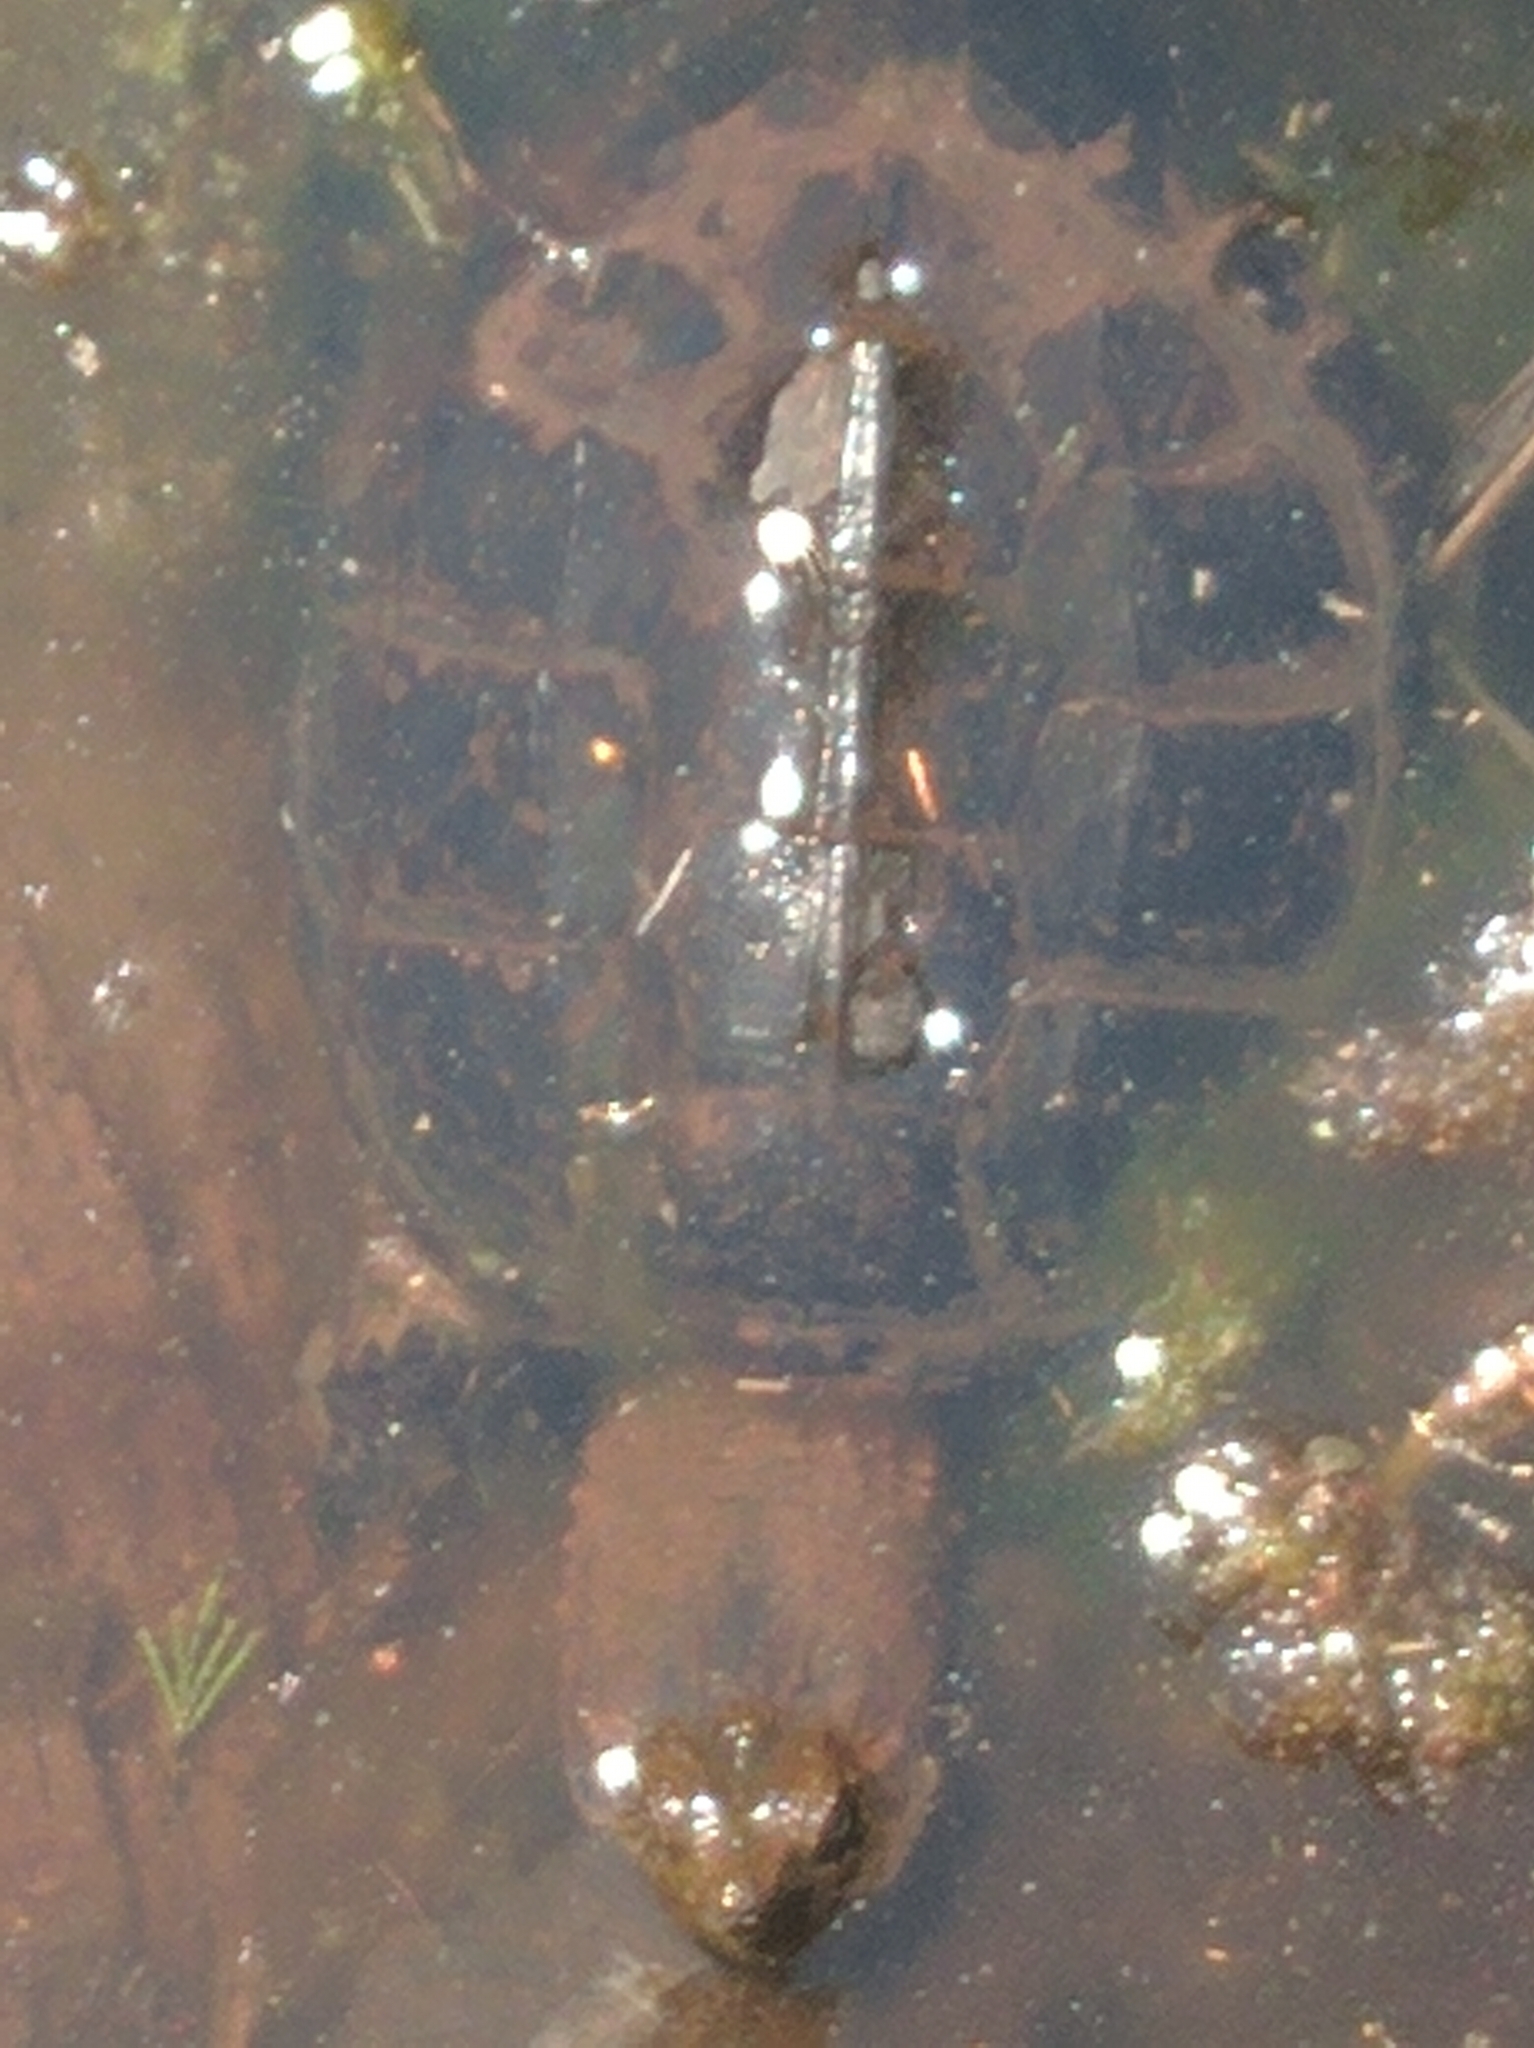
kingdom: Animalia
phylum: Chordata
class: Testudines
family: Chelydridae
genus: Chelydra
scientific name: Chelydra serpentina
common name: Common snapping turtle
